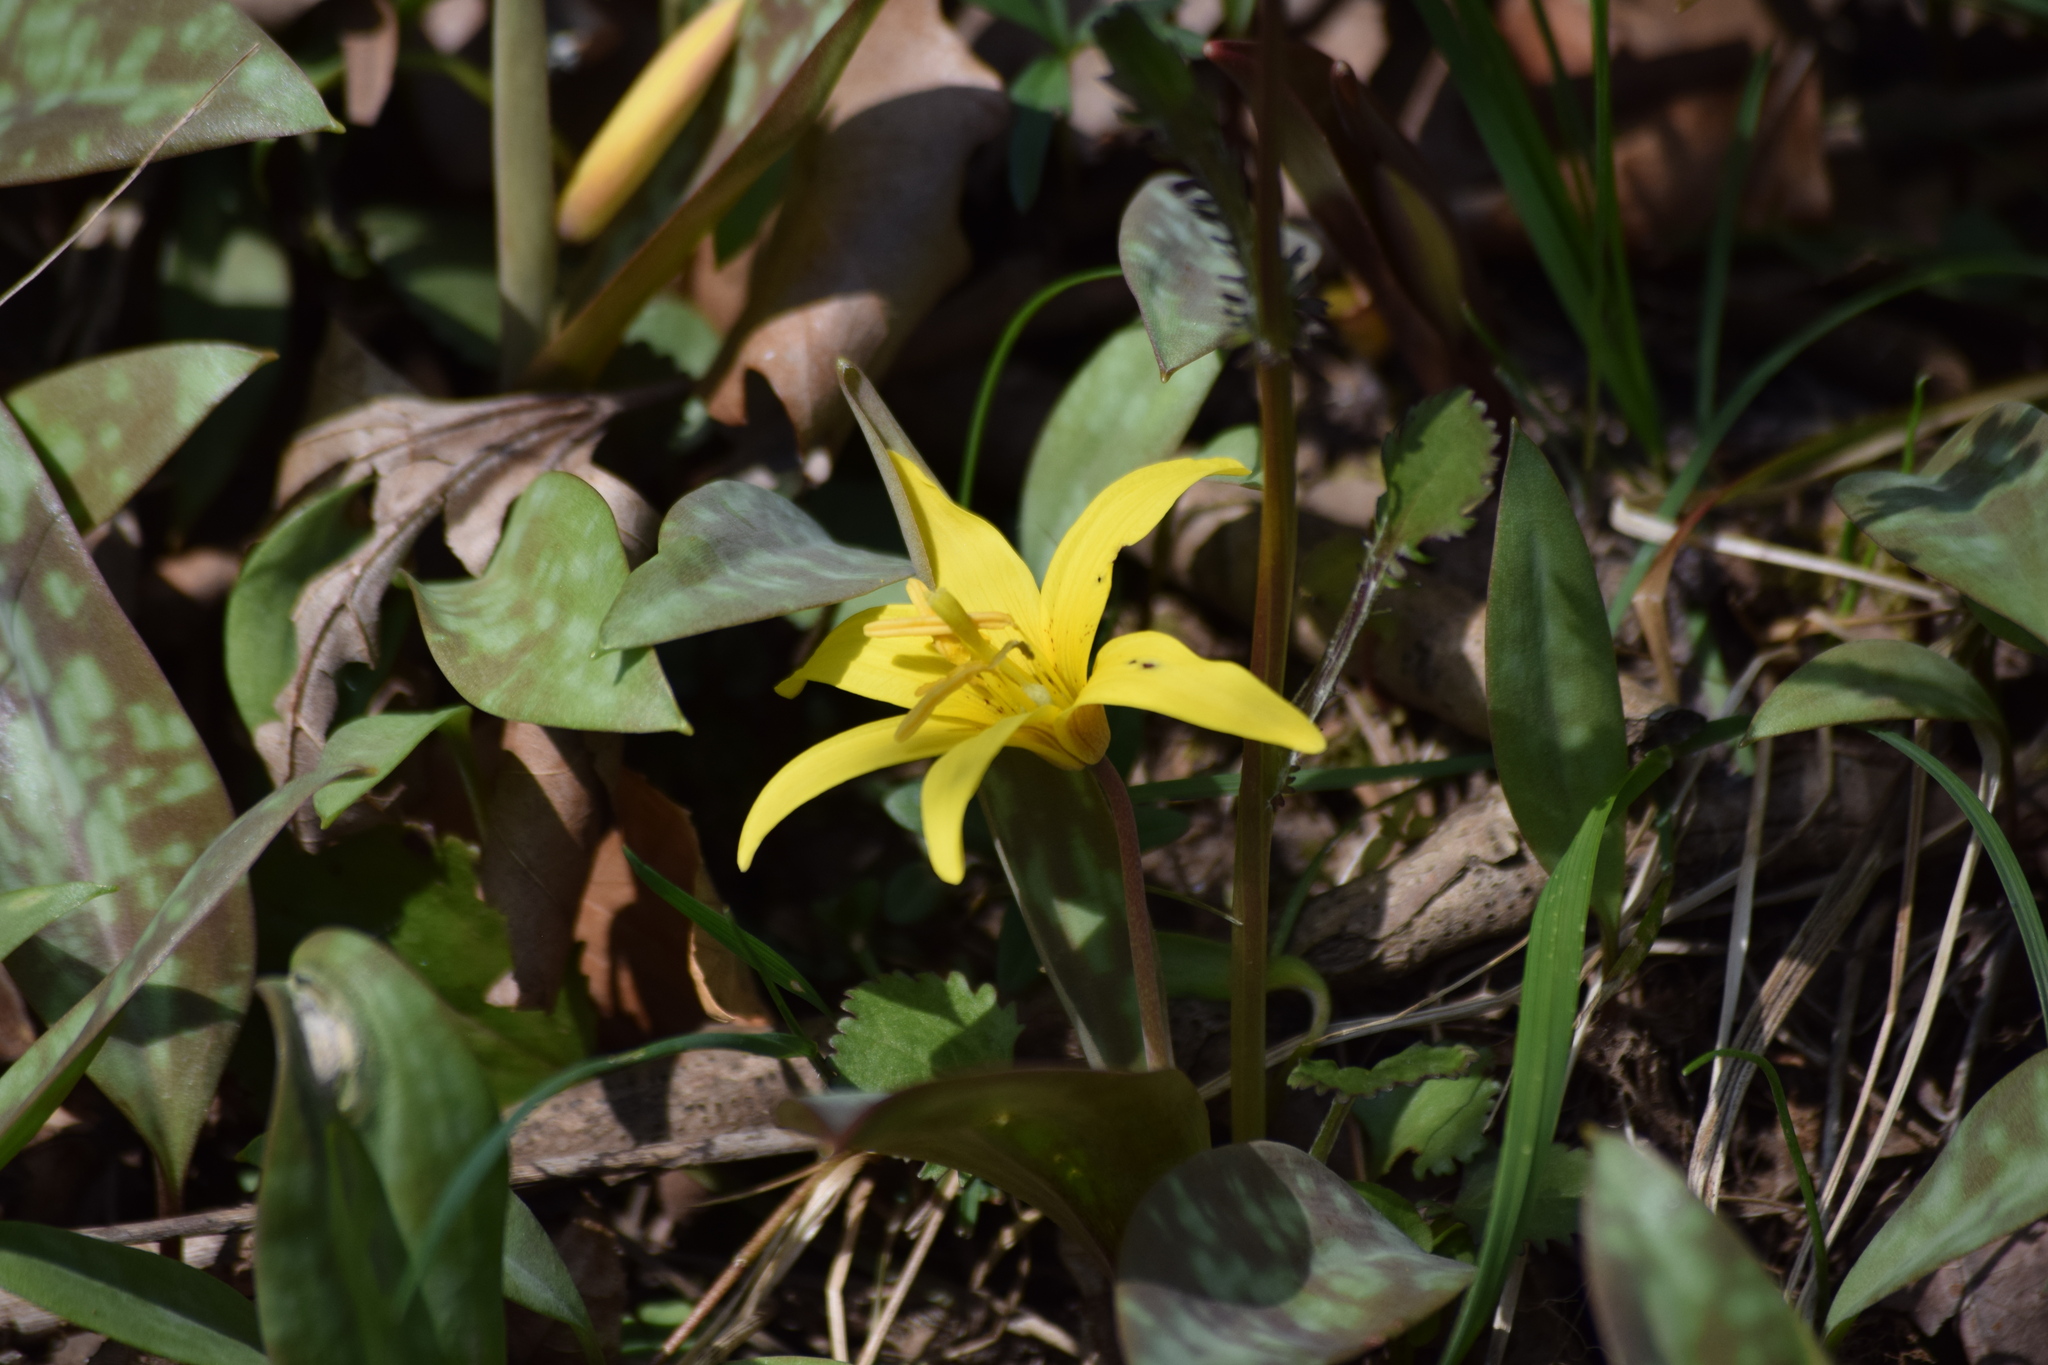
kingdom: Plantae
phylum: Tracheophyta
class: Liliopsida
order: Liliales
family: Liliaceae
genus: Erythronium
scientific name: Erythronium americanum
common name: Yellow adder's-tongue
